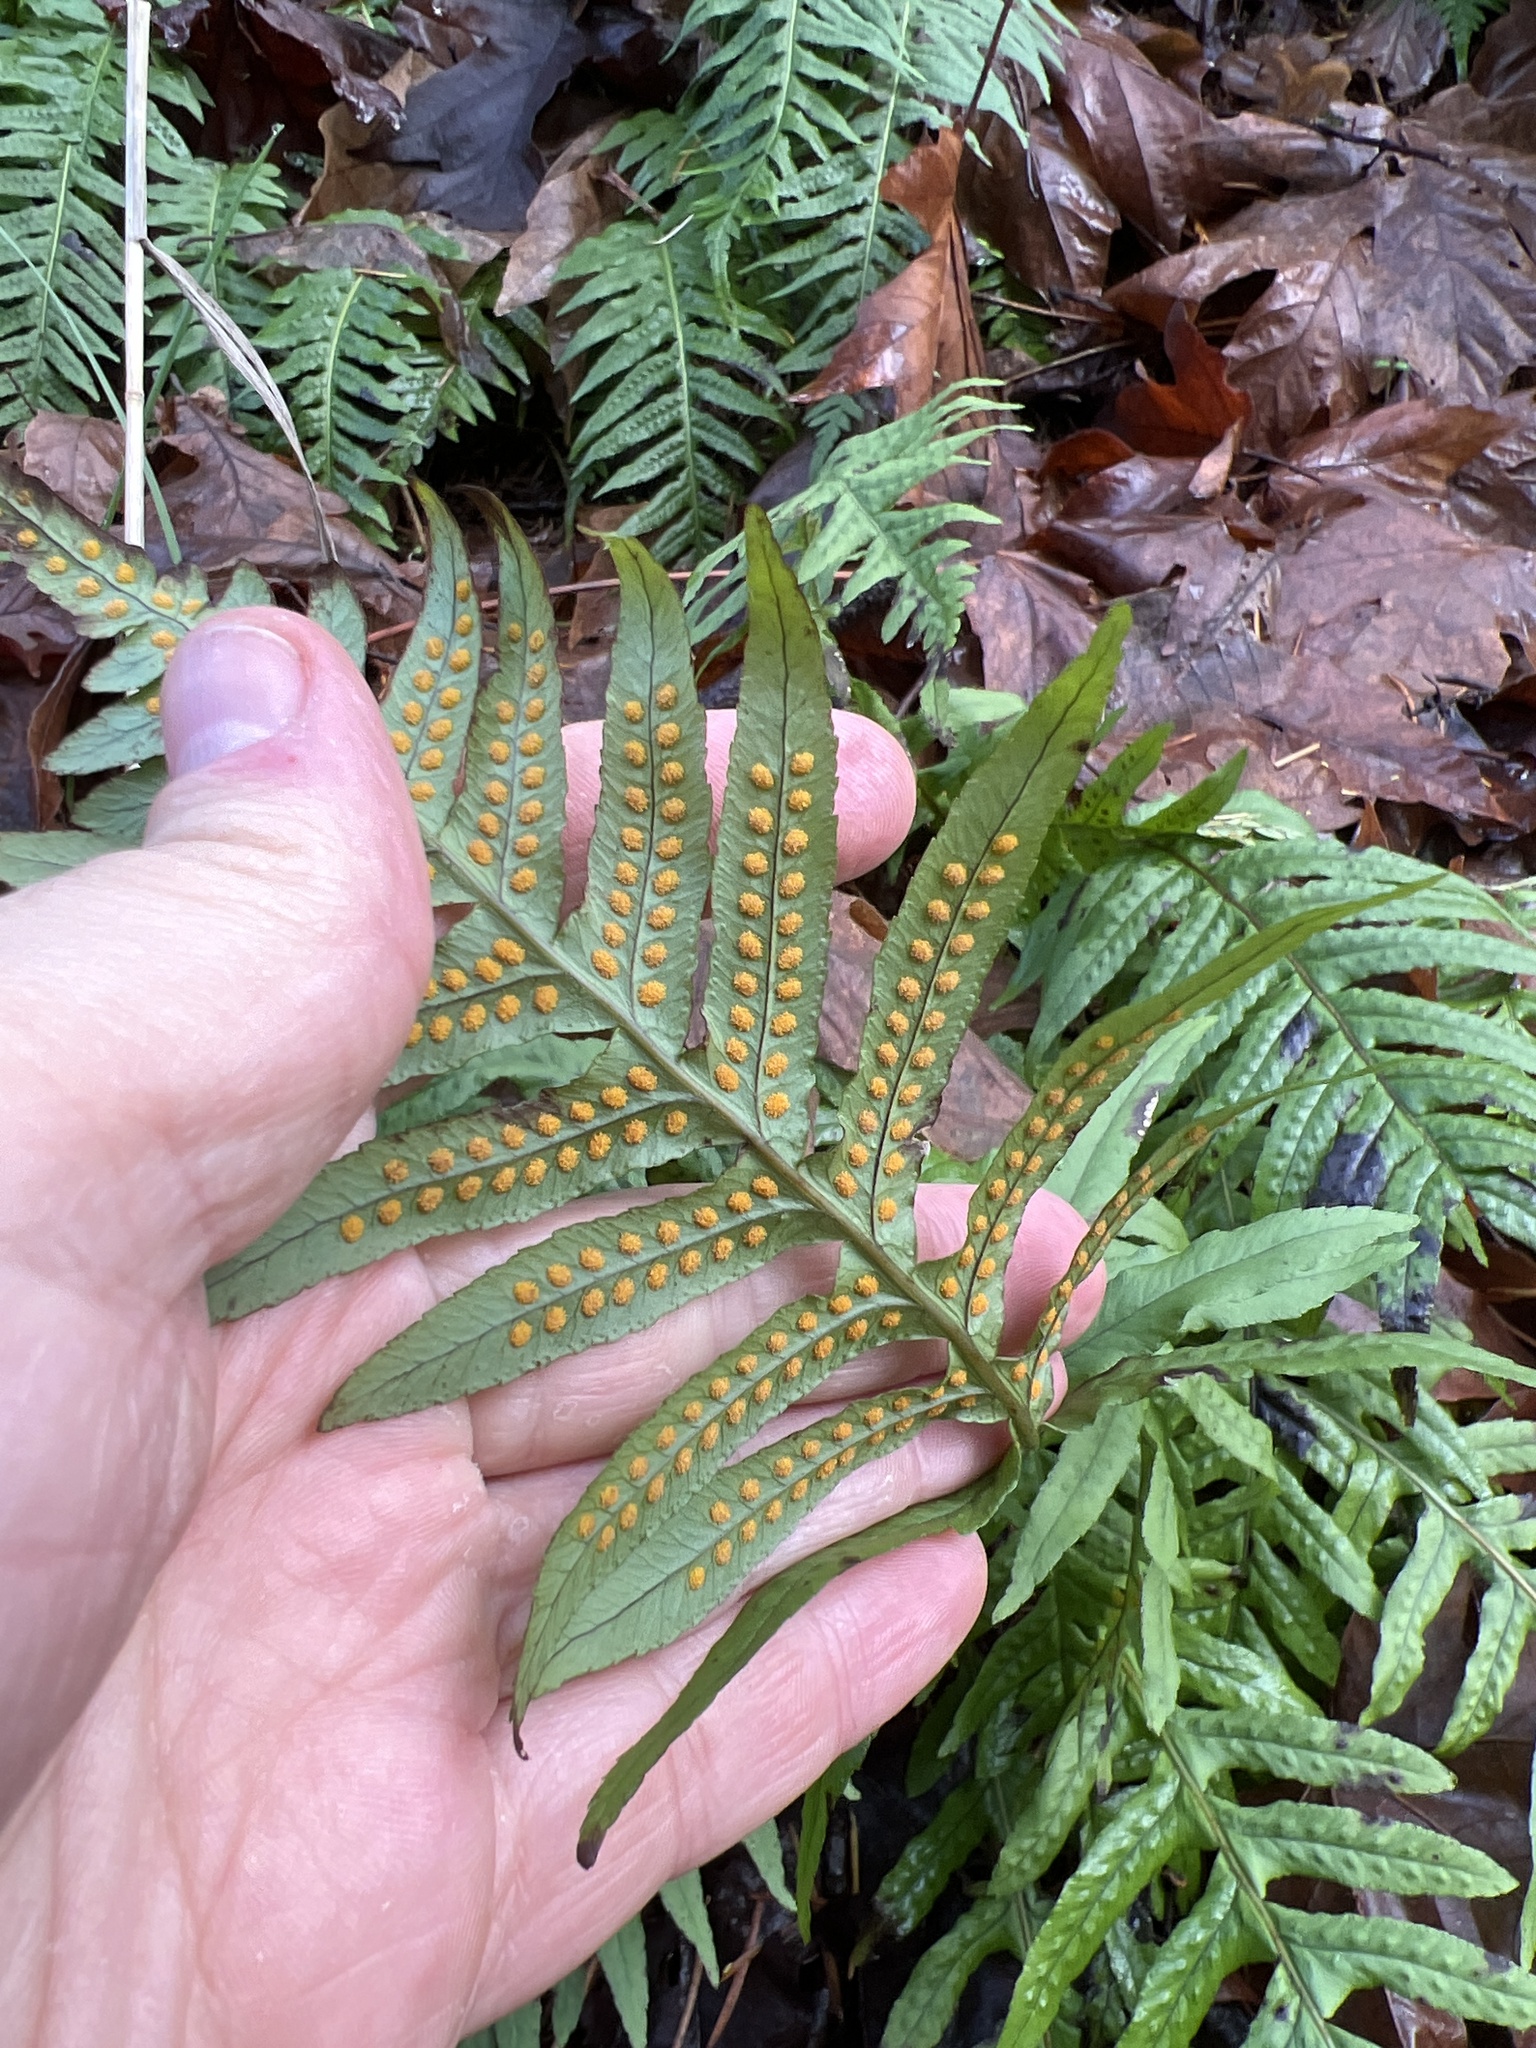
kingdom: Plantae
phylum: Tracheophyta
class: Polypodiopsida
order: Polypodiales
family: Polypodiaceae
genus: Polypodium
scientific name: Polypodium glycyrrhiza
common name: Licorice fern
